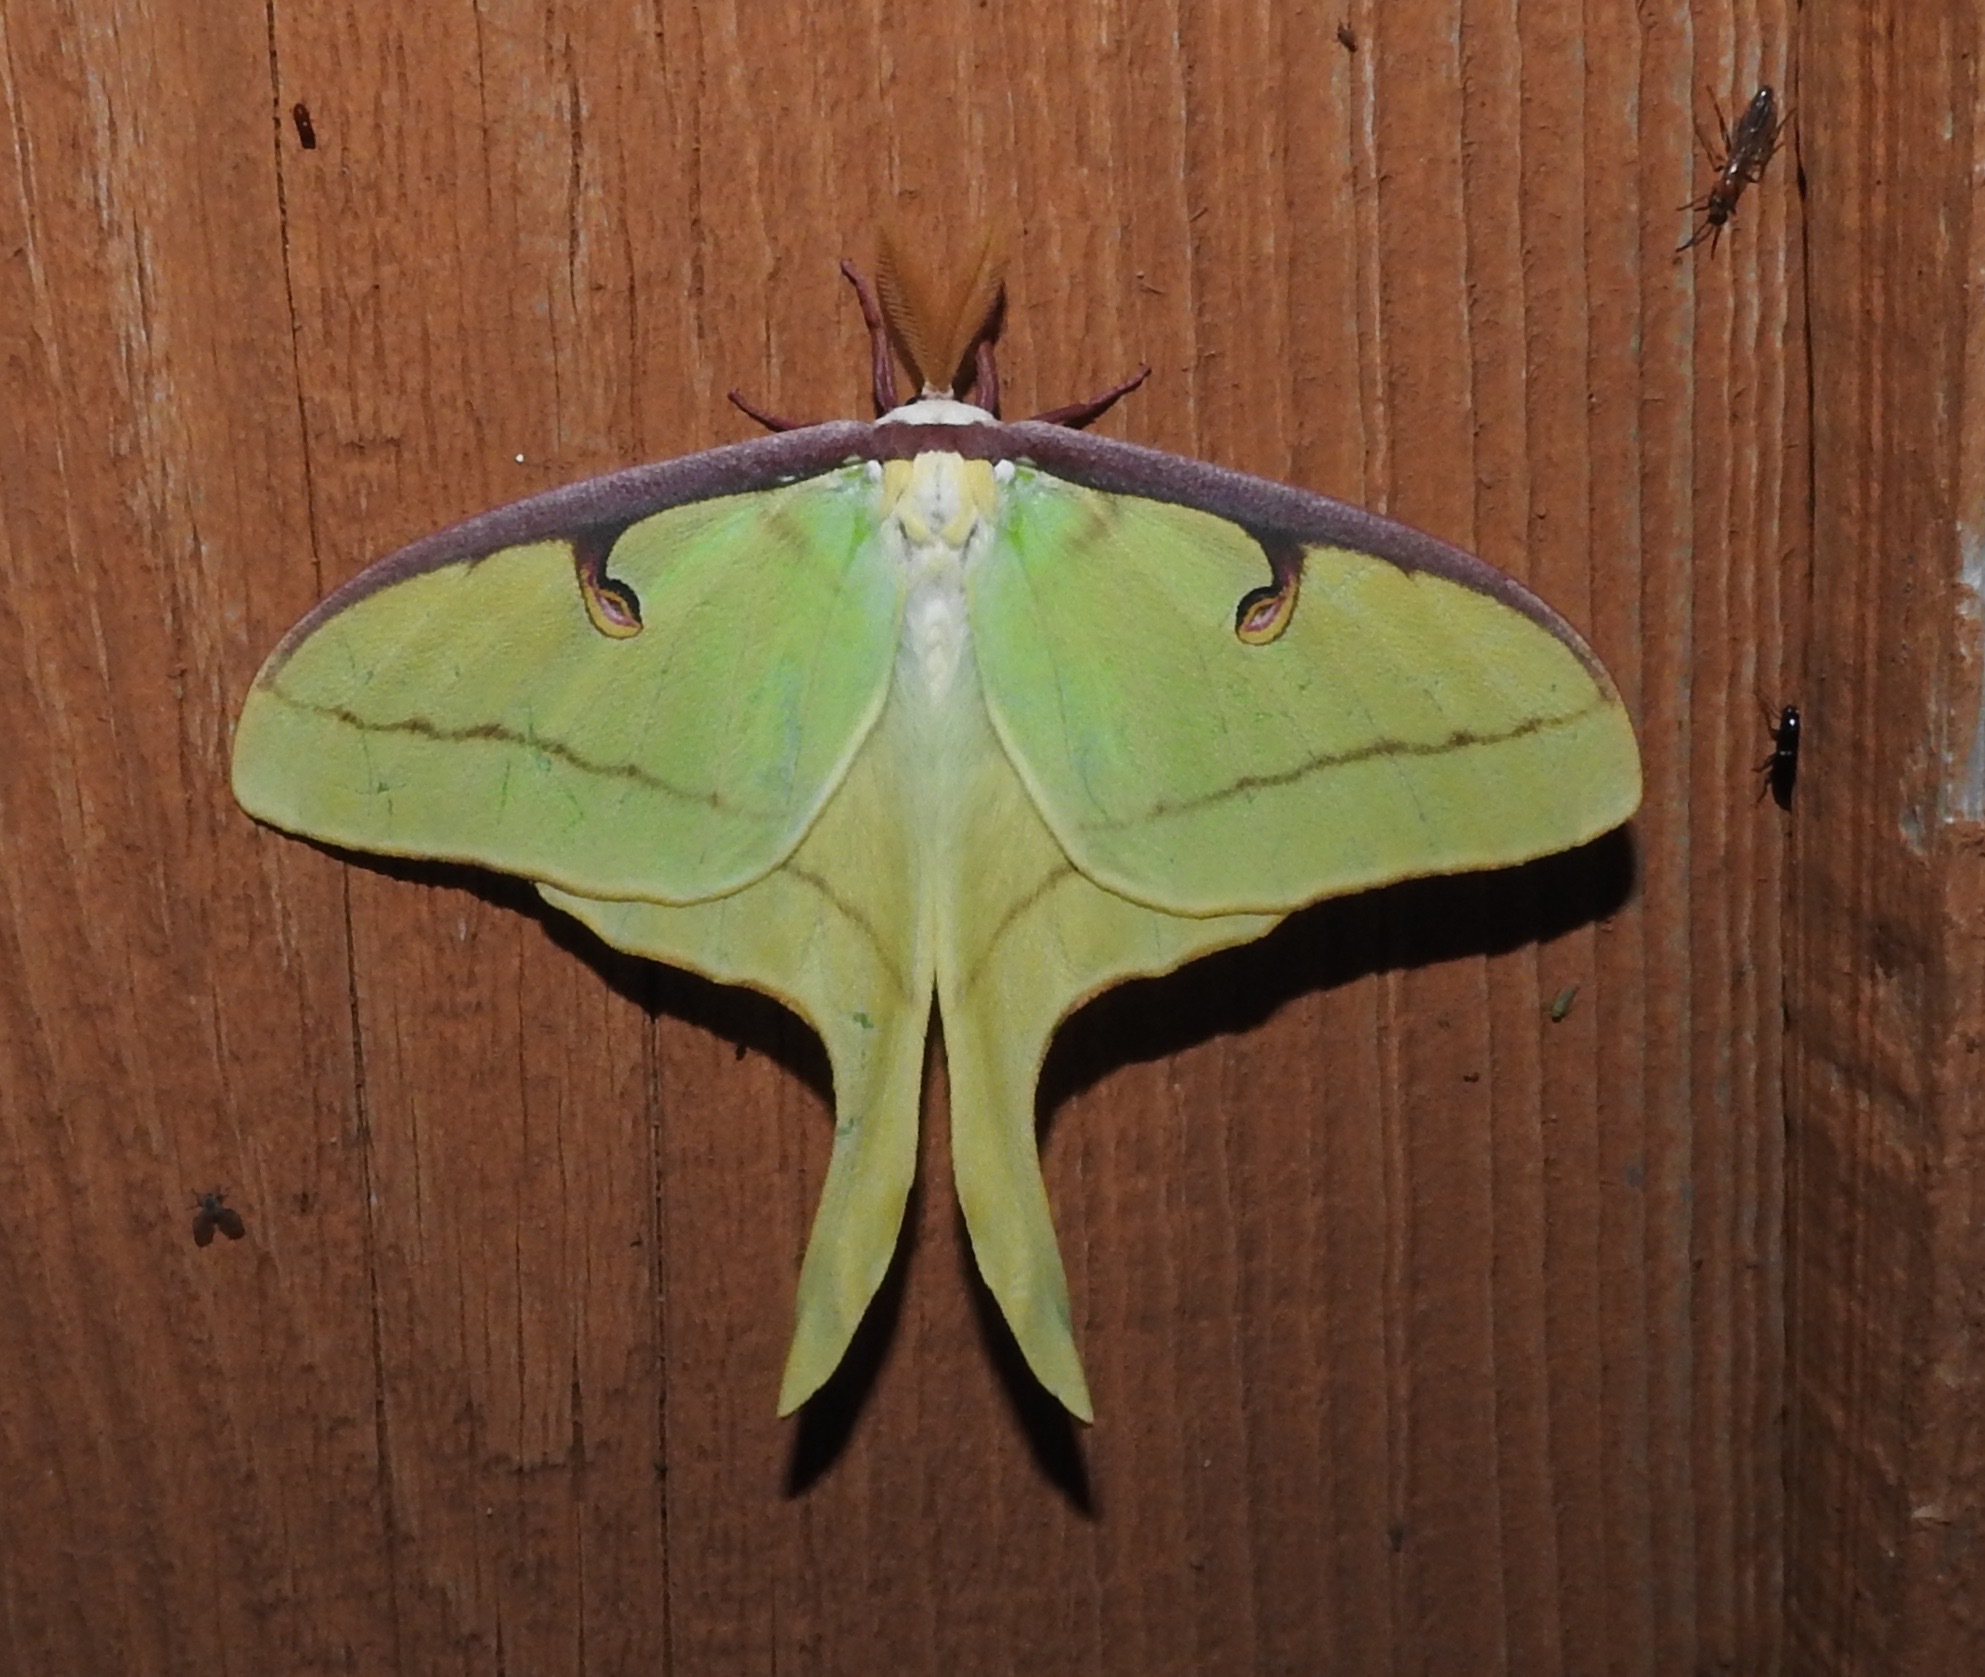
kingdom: Animalia
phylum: Arthropoda
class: Insecta
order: Lepidoptera
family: Saturniidae
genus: Actias
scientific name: Actias luna
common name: Luna moth
